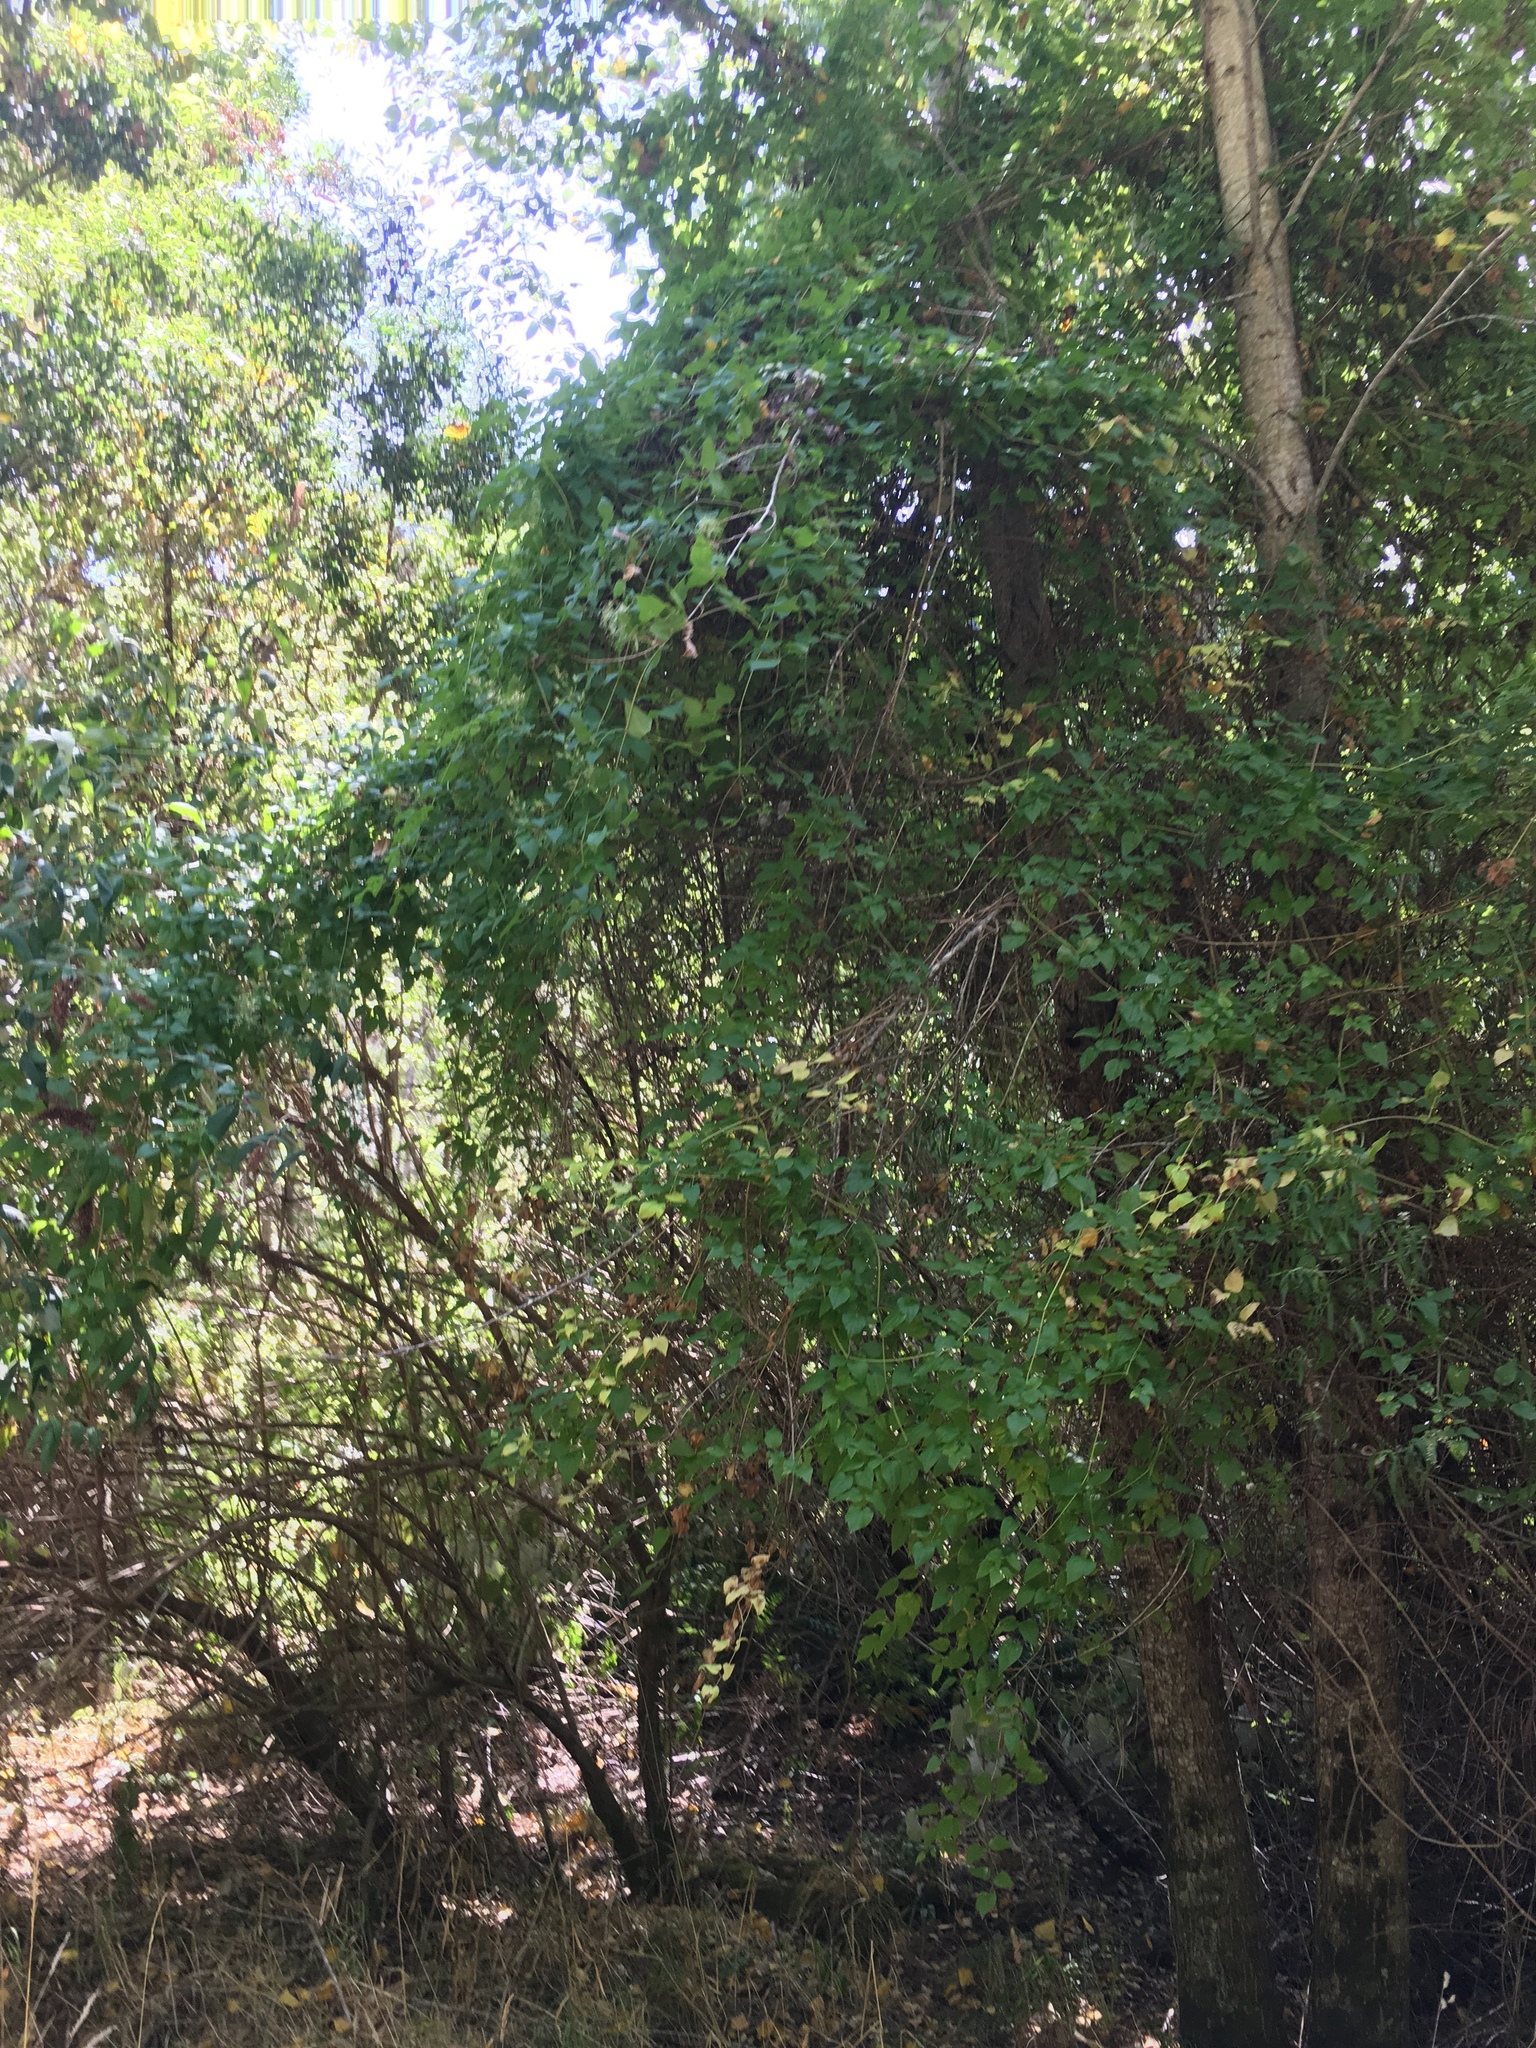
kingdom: Plantae
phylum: Tracheophyta
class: Magnoliopsida
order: Ranunculales
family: Ranunculaceae
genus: Clematis
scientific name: Clematis vitalba
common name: Evergreen clematis
